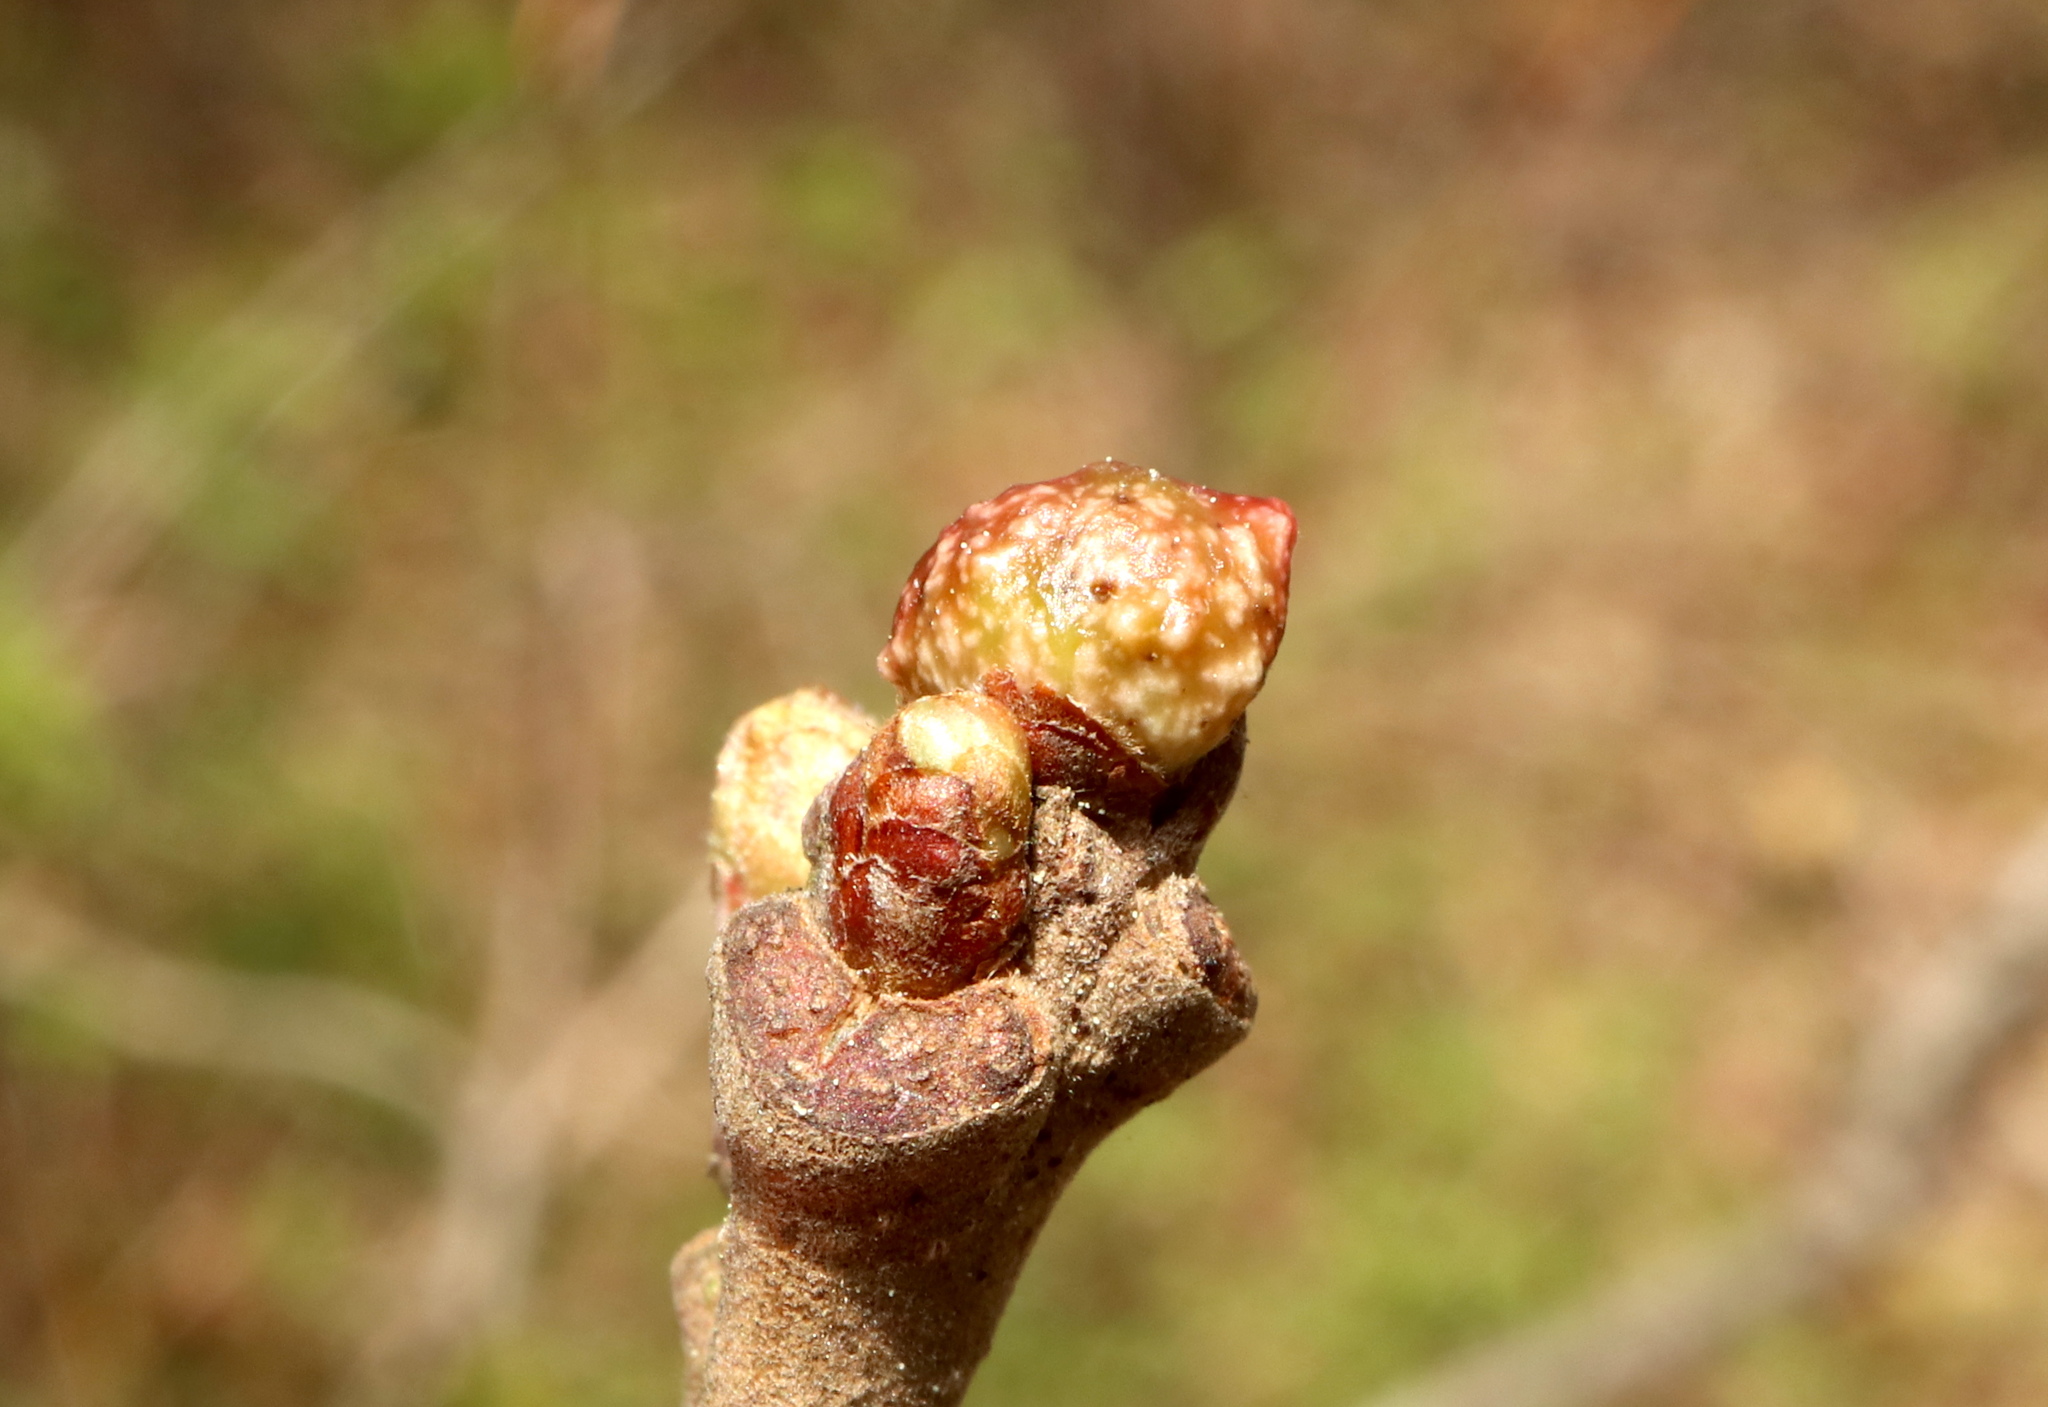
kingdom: Animalia
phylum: Arthropoda
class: Insecta
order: Hymenoptera
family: Cynipidae
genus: Andricus
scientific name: Andricus
